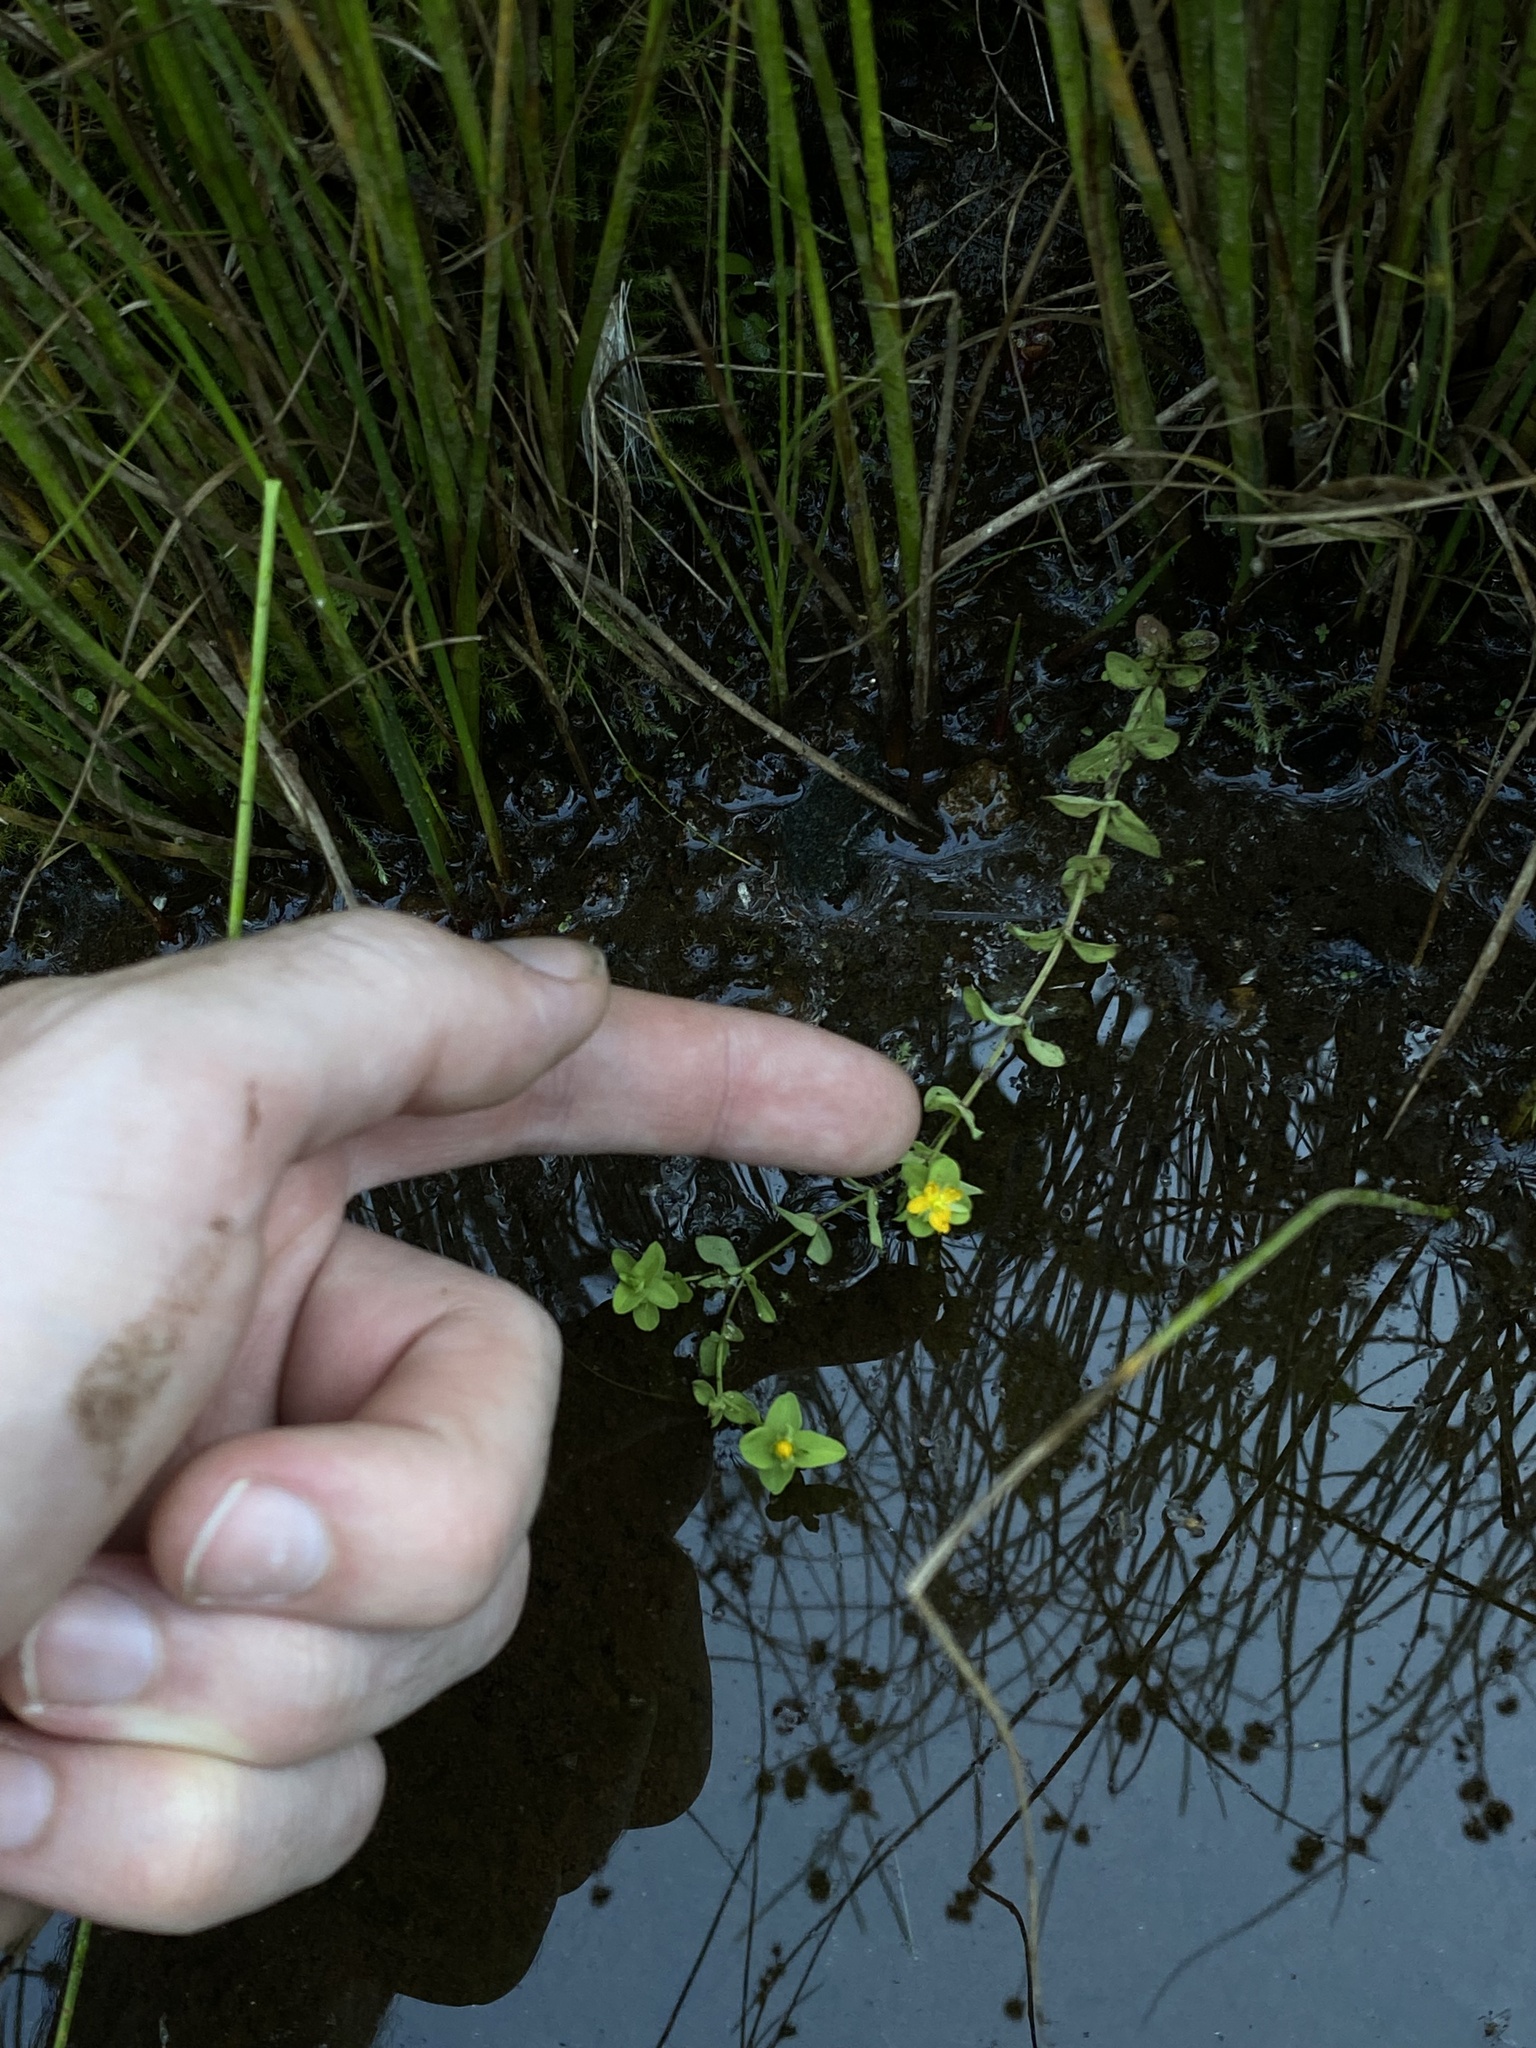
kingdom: Plantae
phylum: Tracheophyta
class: Magnoliopsida
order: Malpighiales
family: Hypericaceae
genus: Hypericum
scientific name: Hypericum anagalloides
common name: Bog st. john's-wort
